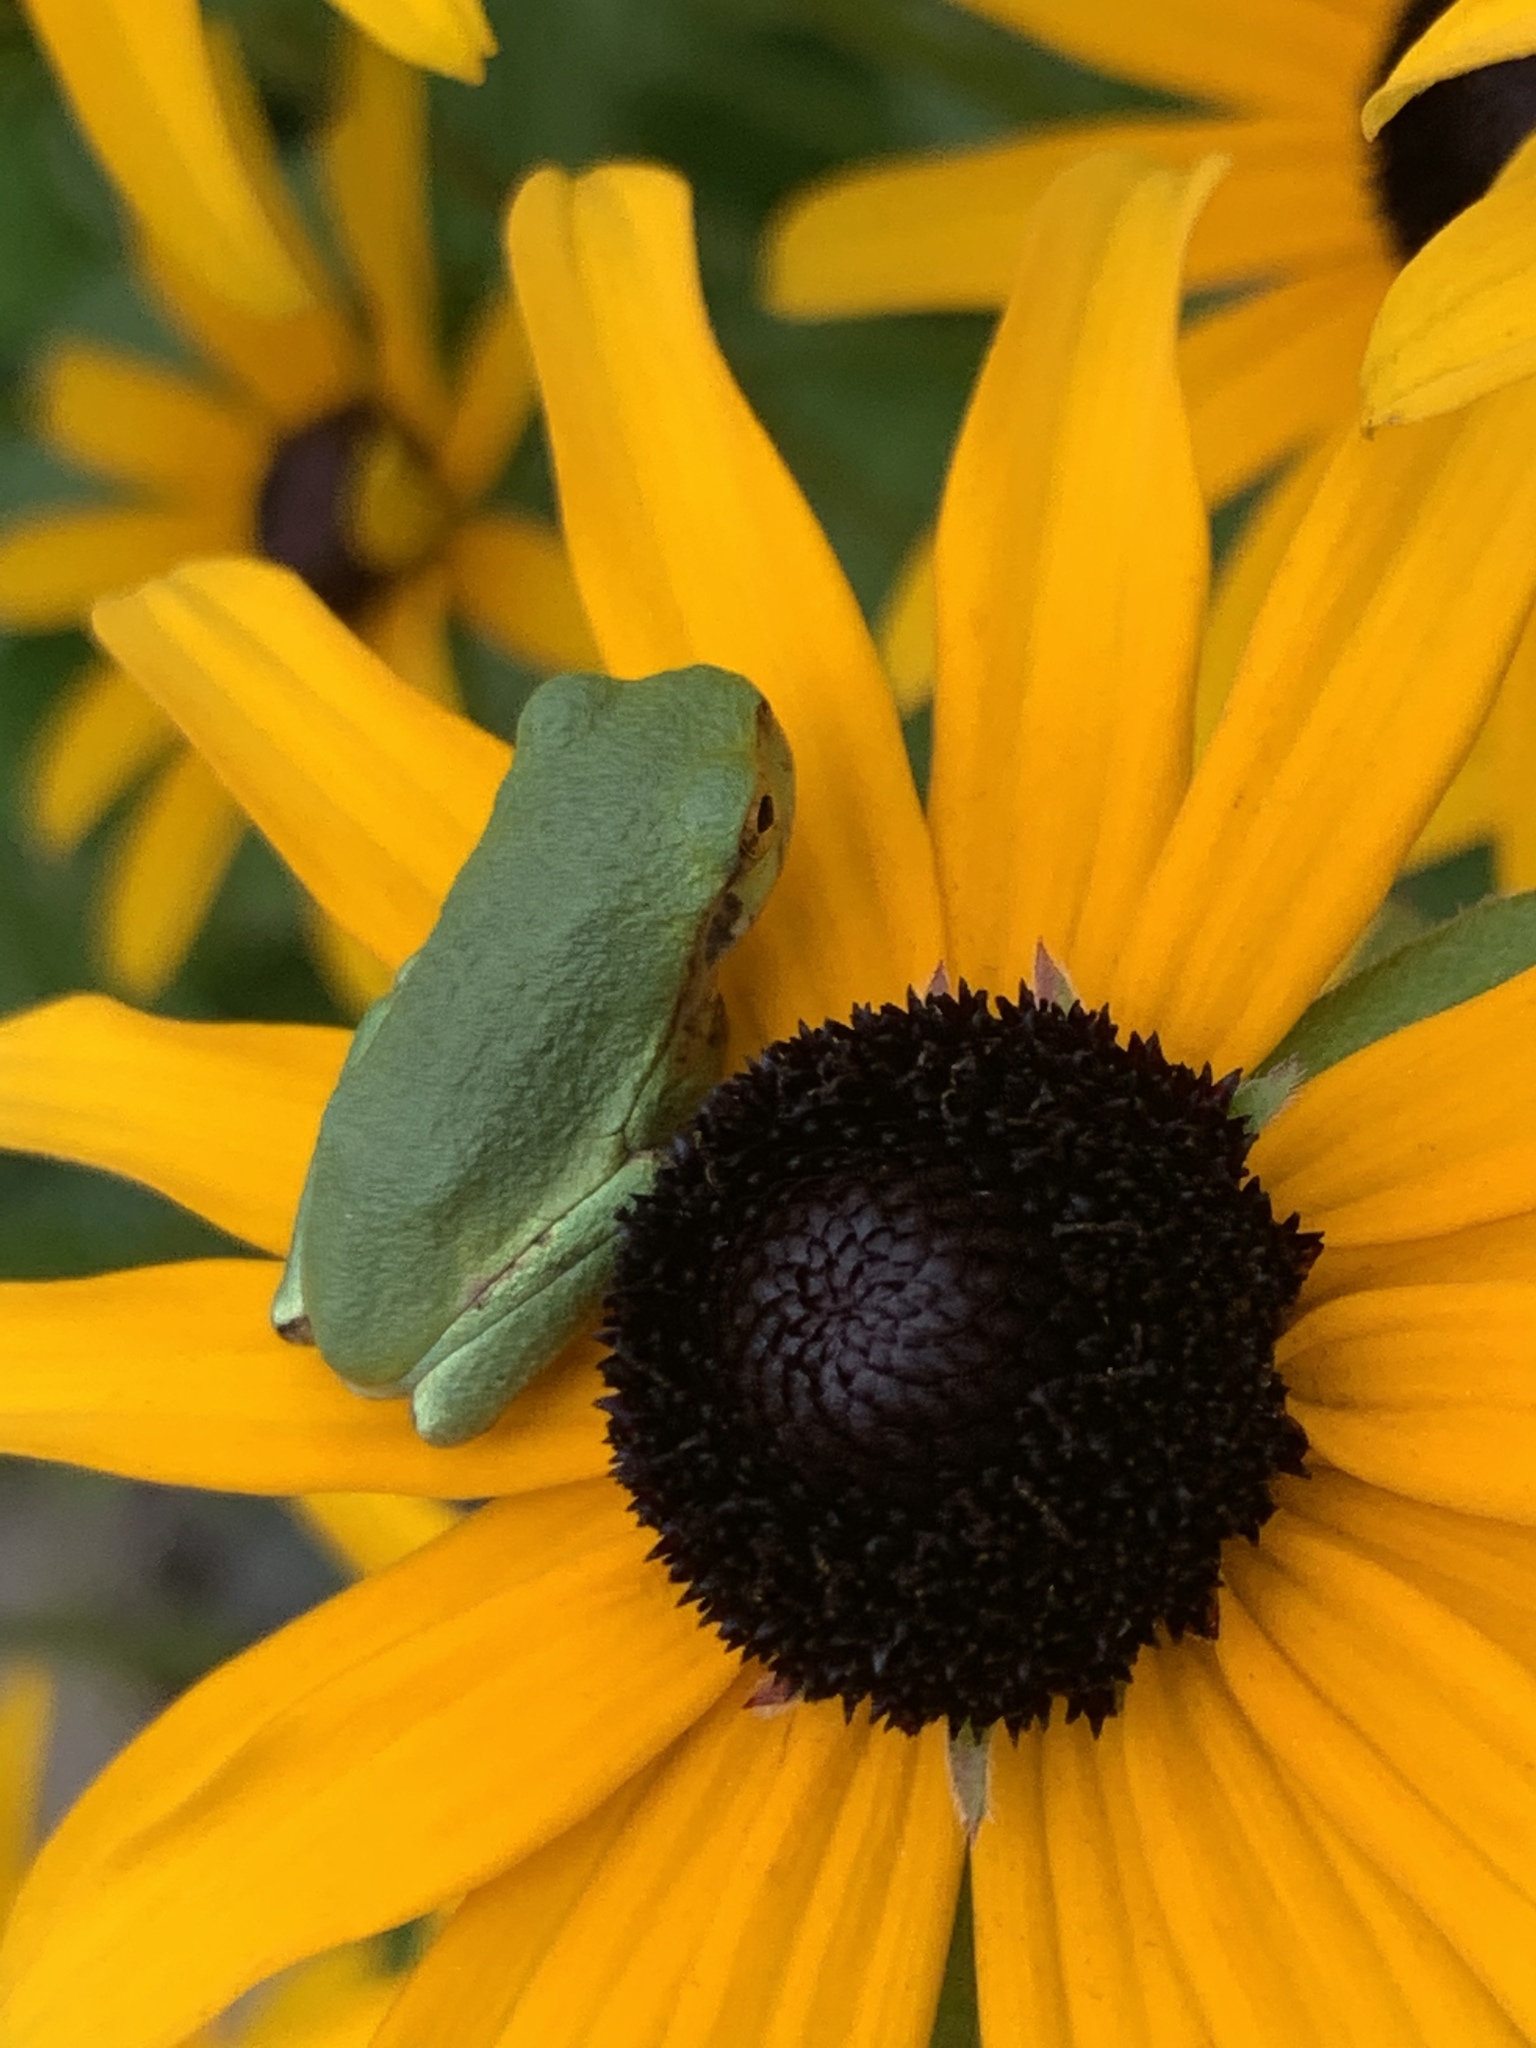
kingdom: Animalia
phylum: Chordata
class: Amphibia
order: Anura
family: Hylidae
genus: Hyla
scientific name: Hyla
